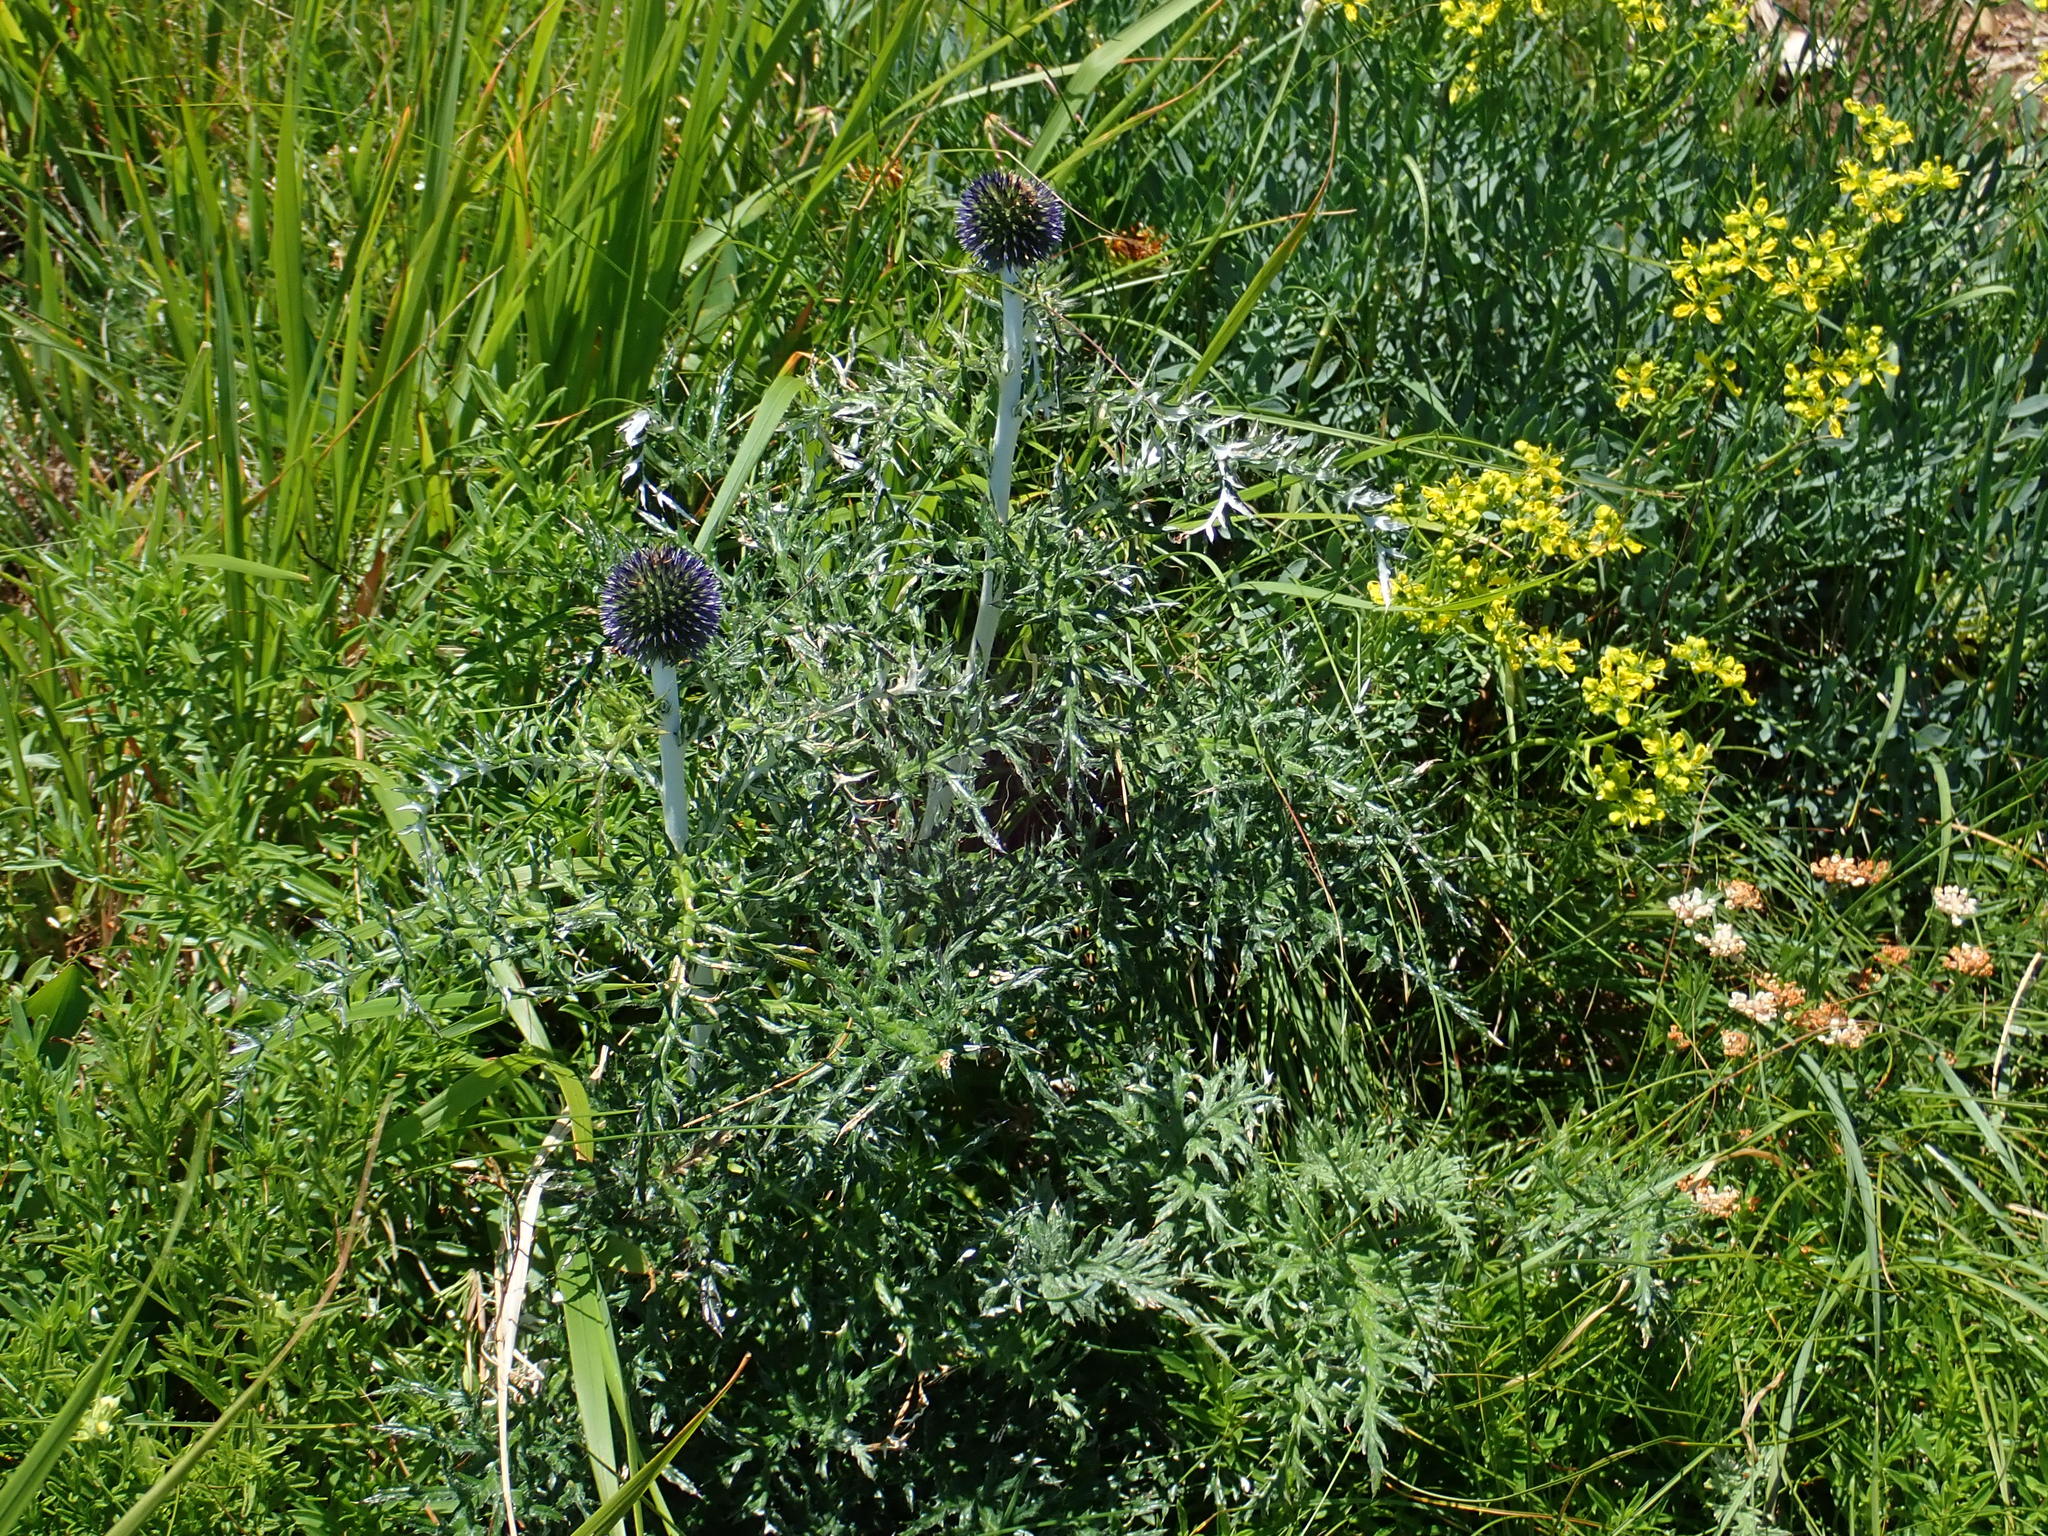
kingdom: Plantae
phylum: Tracheophyta
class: Magnoliopsida
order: Asterales
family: Asteraceae
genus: Echinops
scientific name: Echinops ritro
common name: Globe thistle
